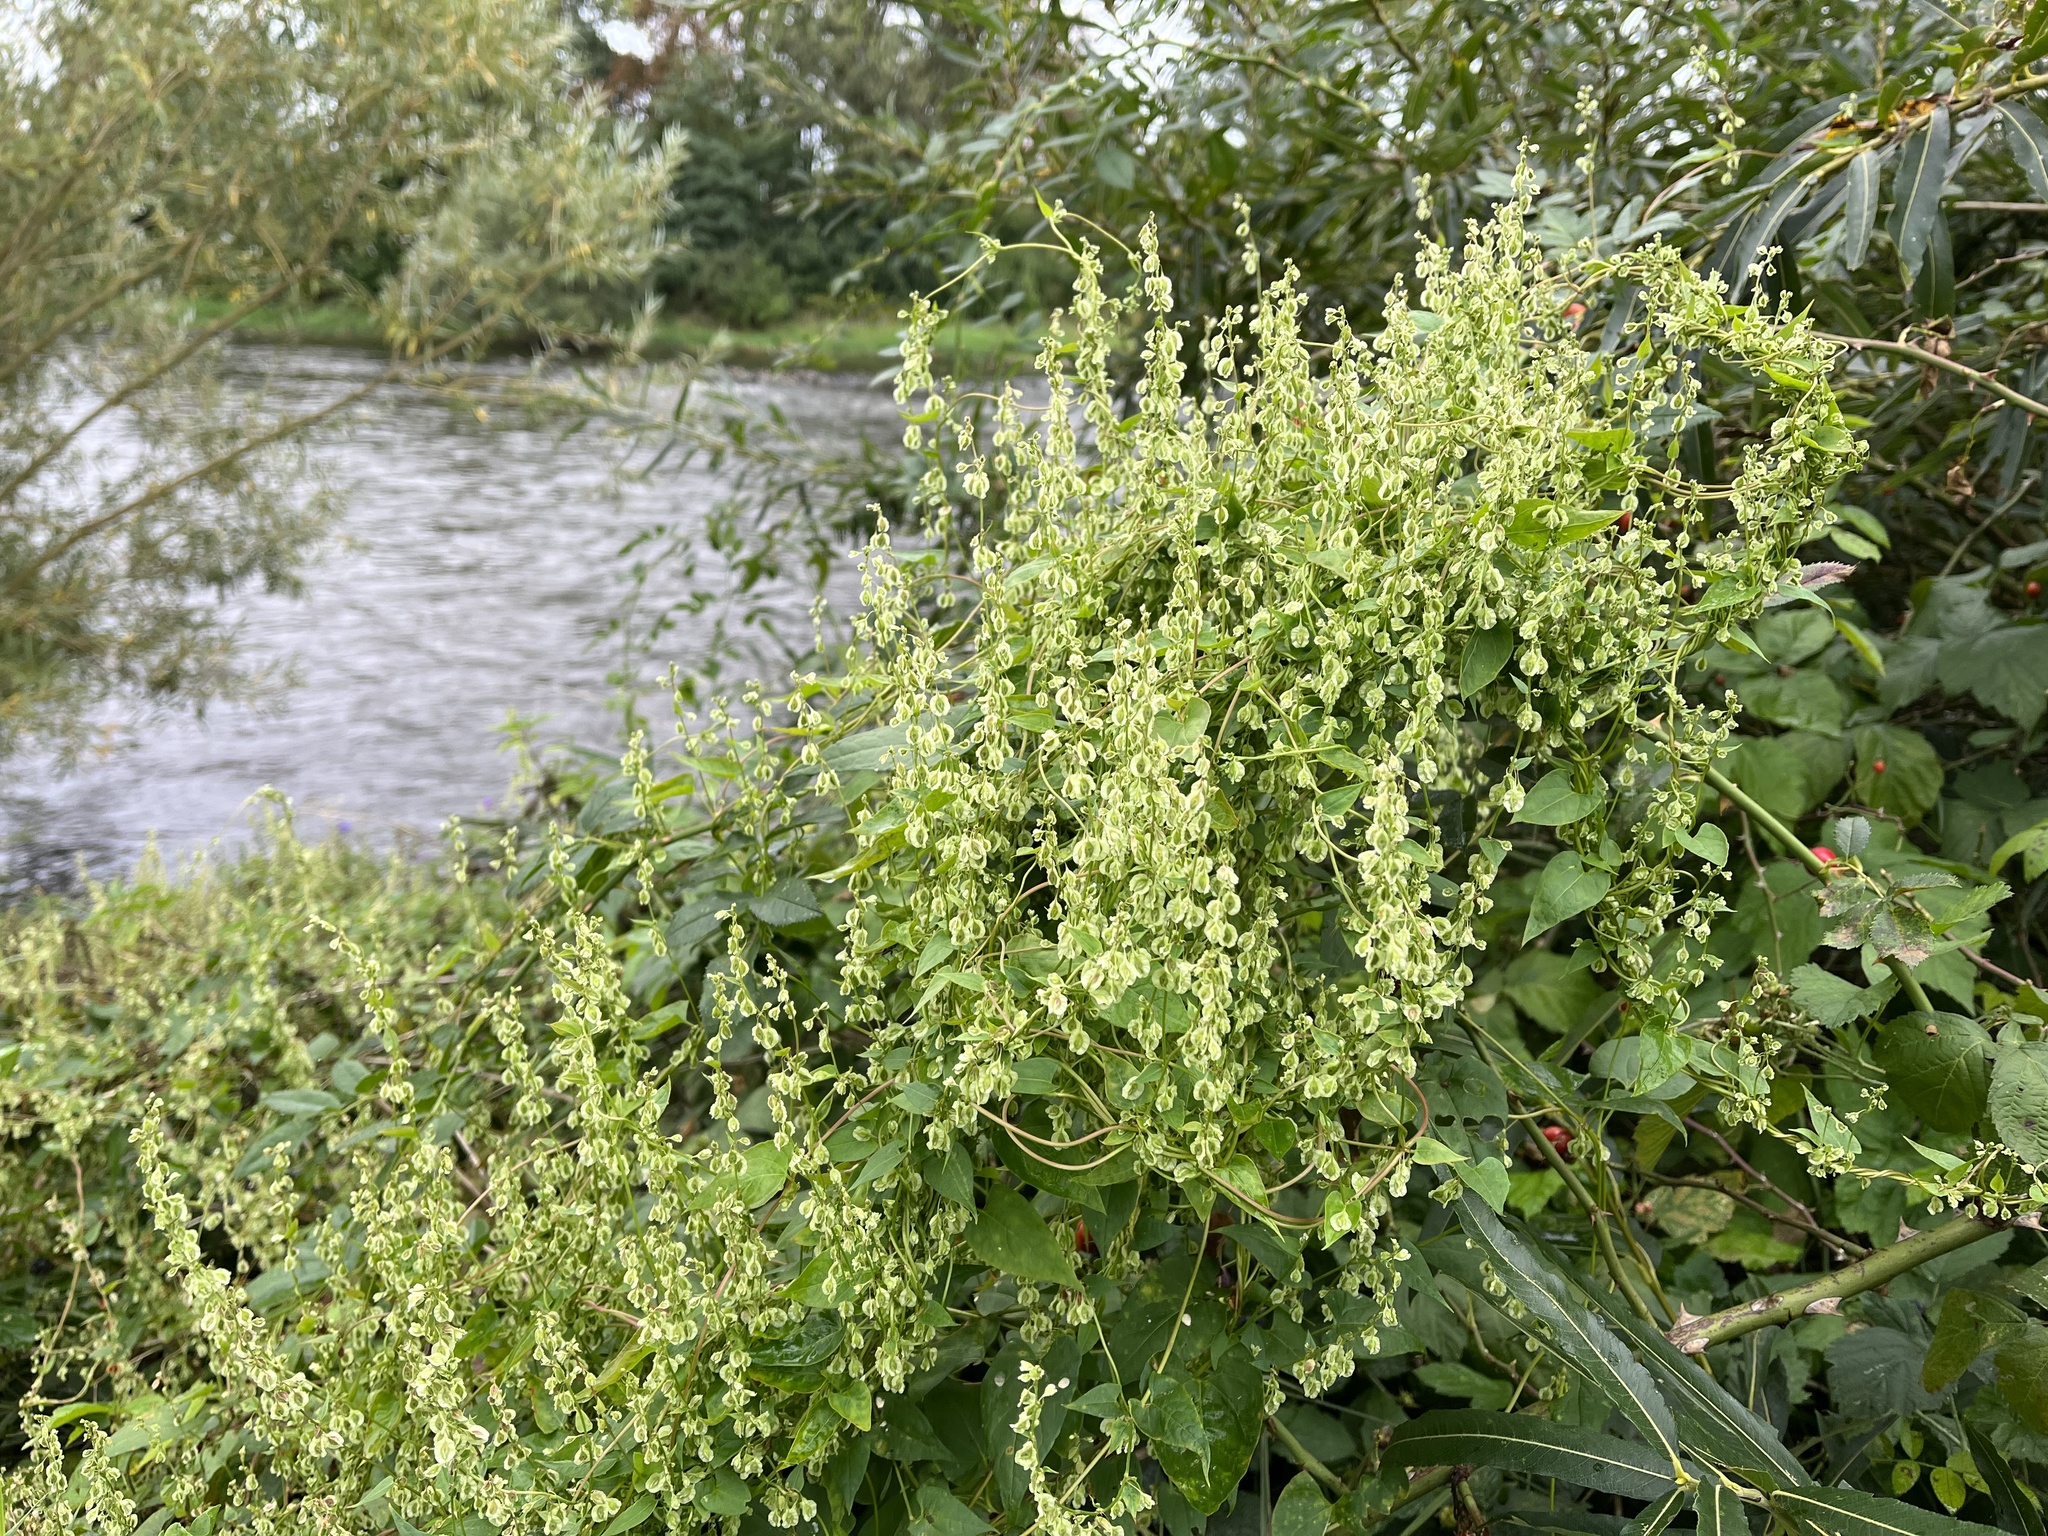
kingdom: Plantae
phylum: Tracheophyta
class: Magnoliopsida
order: Caryophyllales
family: Polygonaceae
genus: Fallopia
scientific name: Fallopia dumetorum
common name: Copse-bindweed
